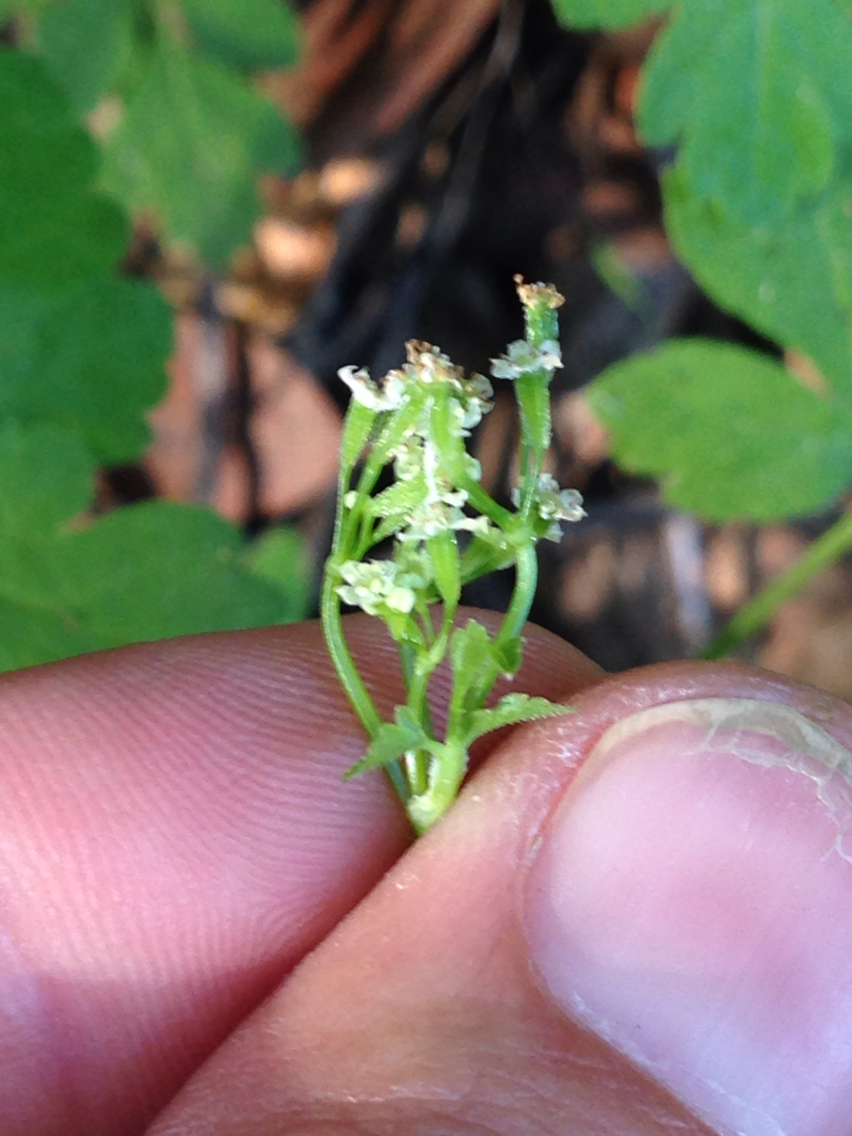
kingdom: Plantae
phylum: Tracheophyta
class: Magnoliopsida
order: Apiales
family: Apiaceae
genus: Osmorhiza
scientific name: Osmorhiza berteroi
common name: Mountain sweet cicely
